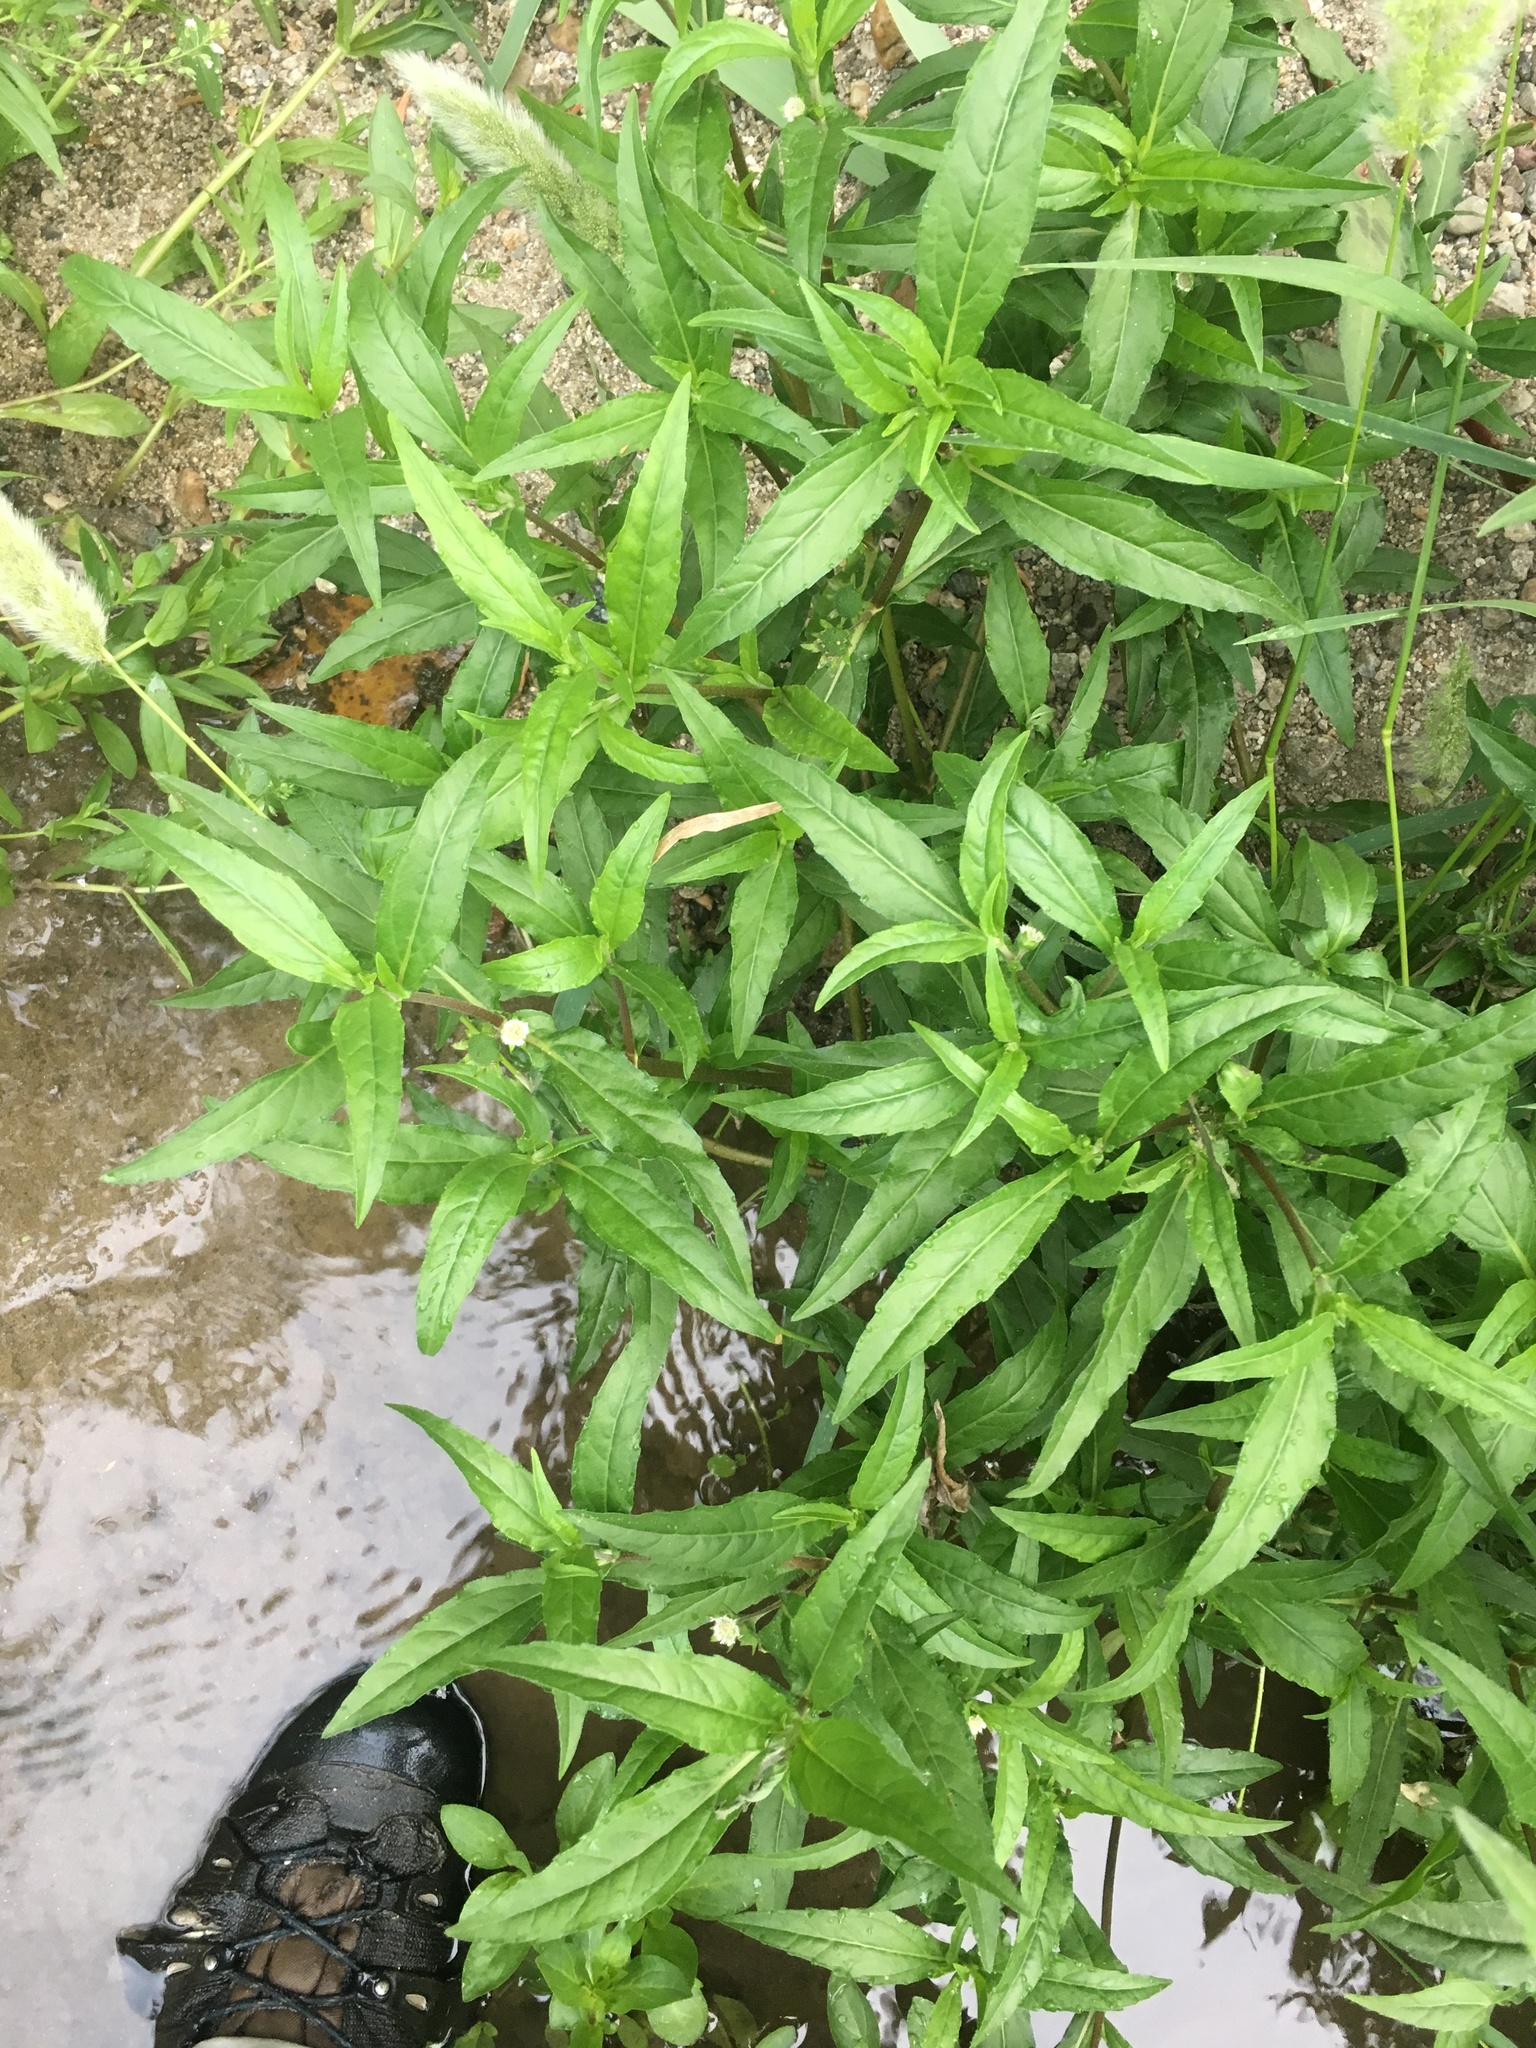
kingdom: Plantae
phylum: Tracheophyta
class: Magnoliopsida
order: Asterales
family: Asteraceae
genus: Eclipta
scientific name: Eclipta prostrata
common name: False daisy
